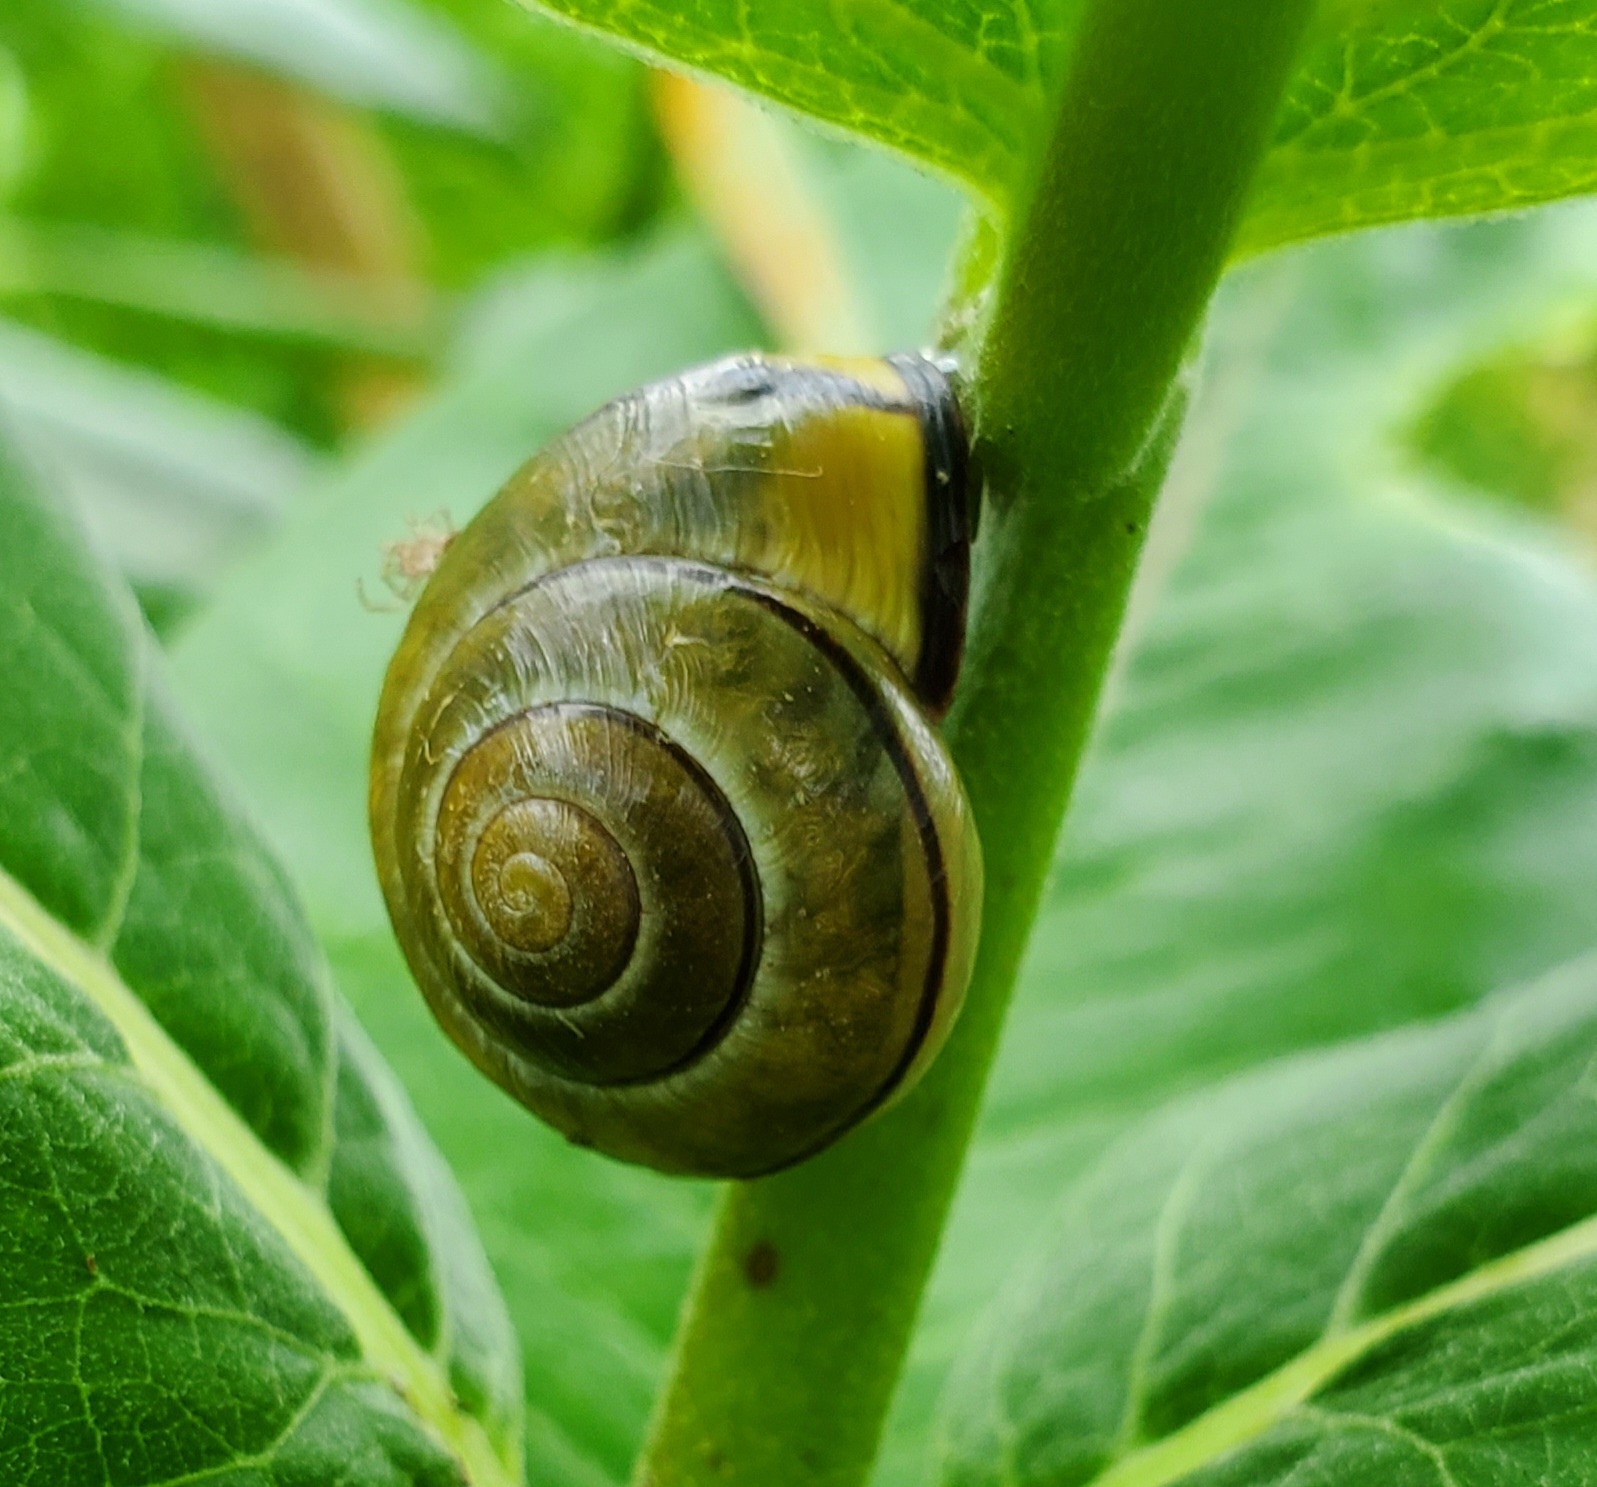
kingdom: Animalia
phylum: Mollusca
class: Gastropoda
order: Stylommatophora
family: Helicidae
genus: Cepaea
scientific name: Cepaea nemoralis
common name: Grovesnail
